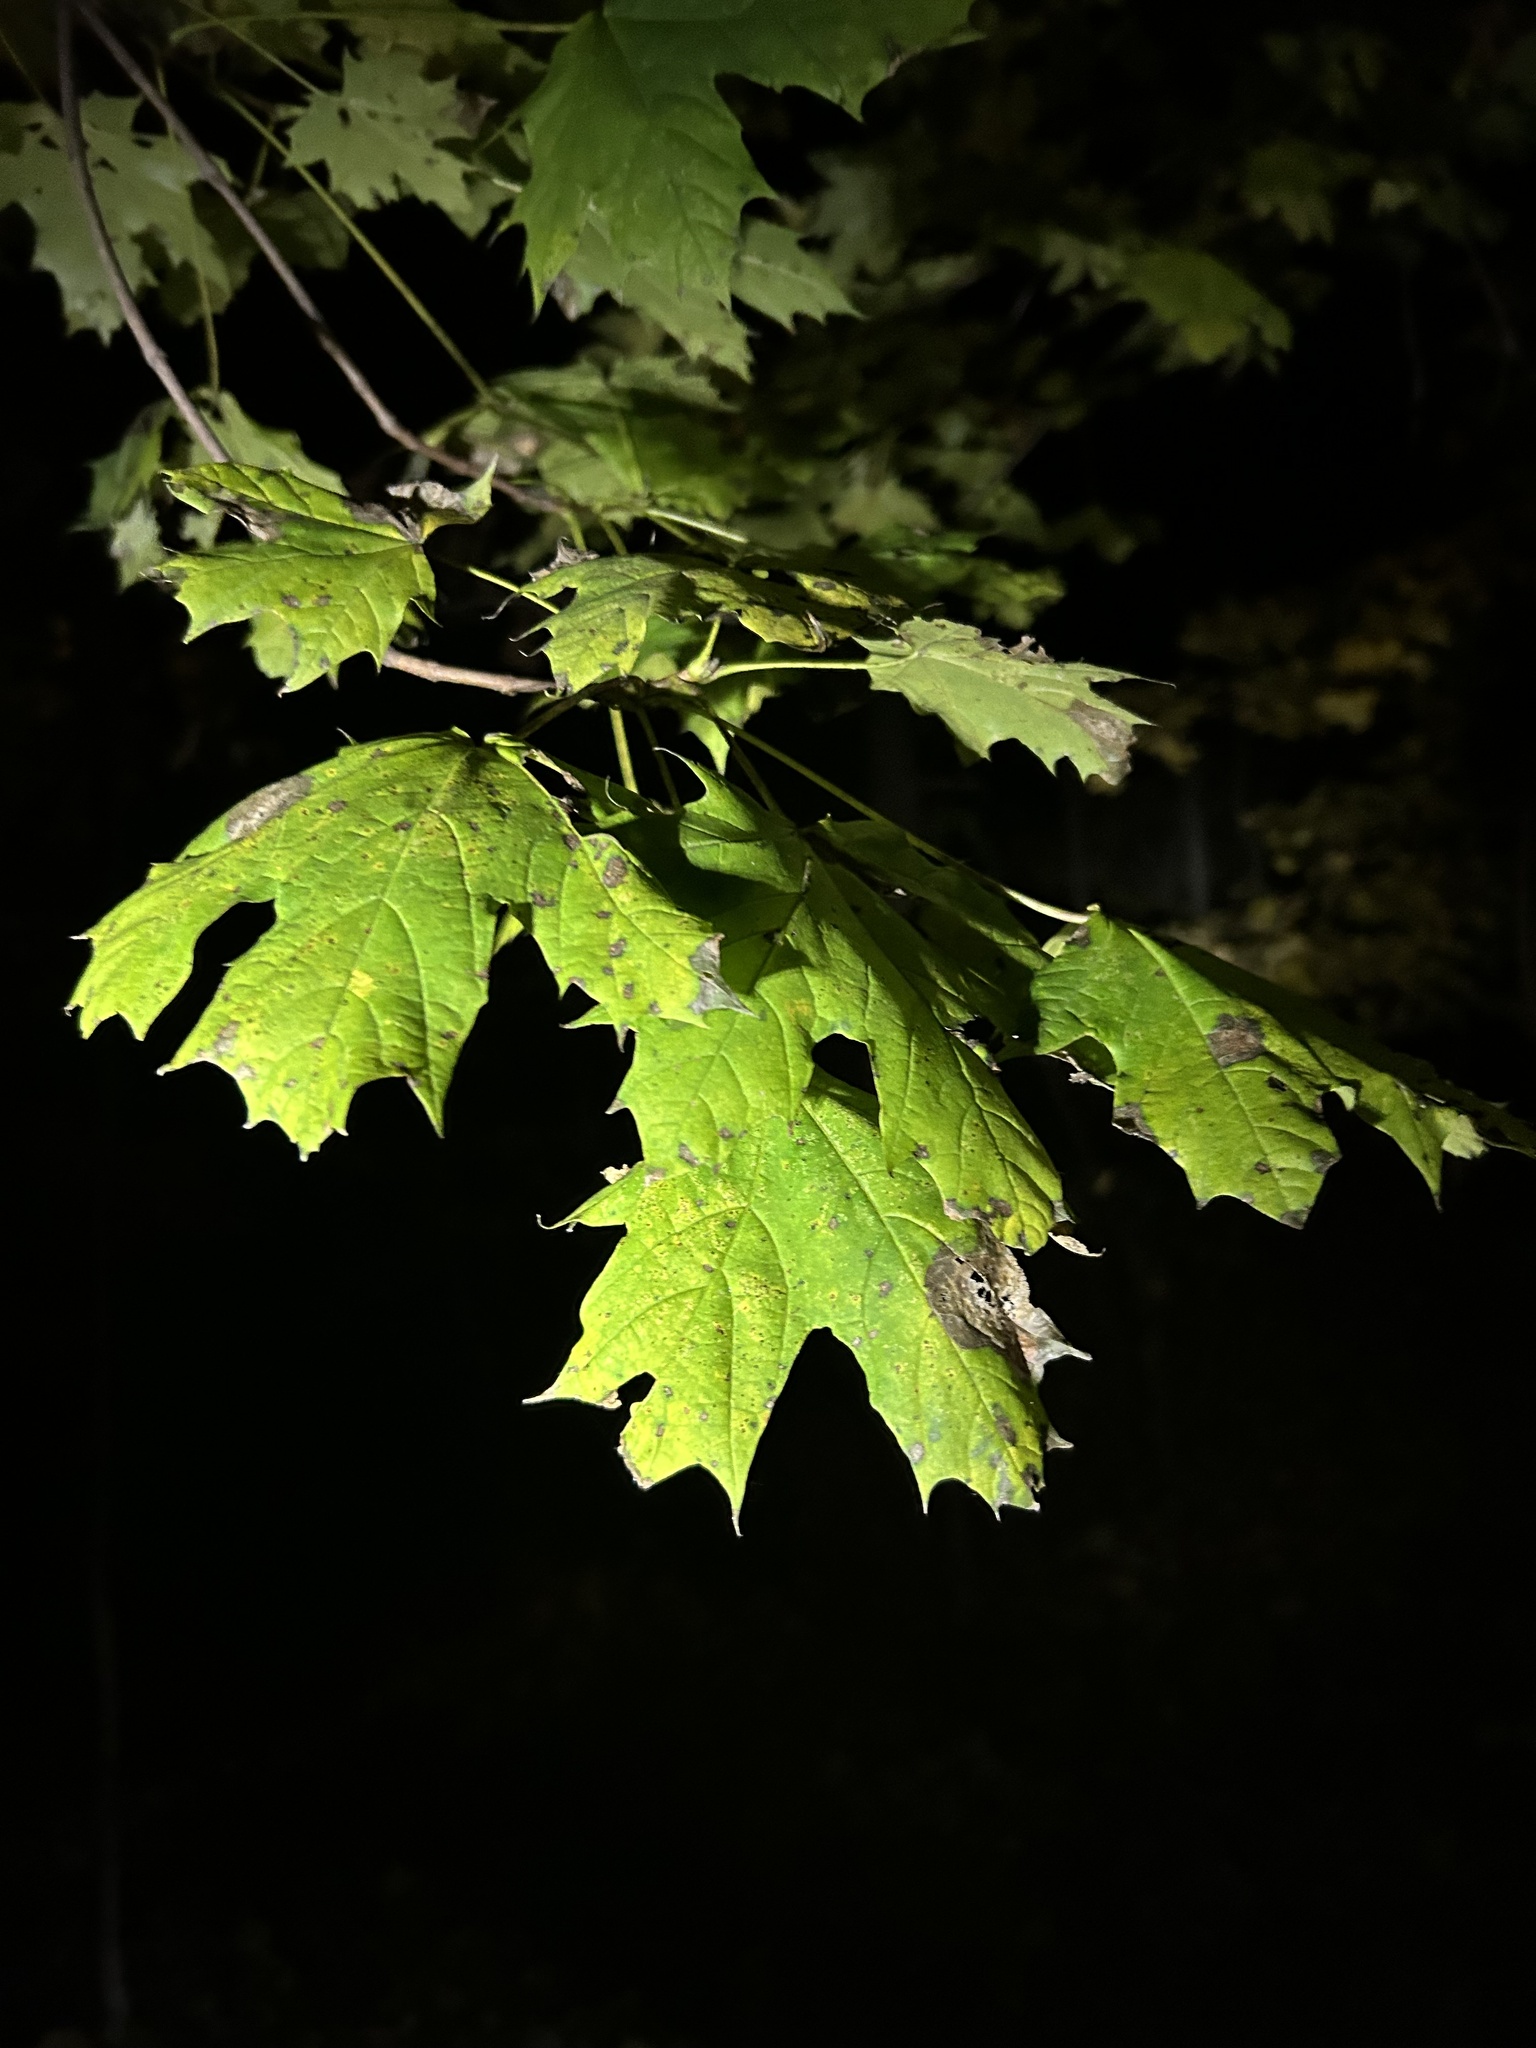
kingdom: Plantae
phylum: Tracheophyta
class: Magnoliopsida
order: Sapindales
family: Sapindaceae
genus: Acer
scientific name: Acer platanoides
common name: Norway maple
